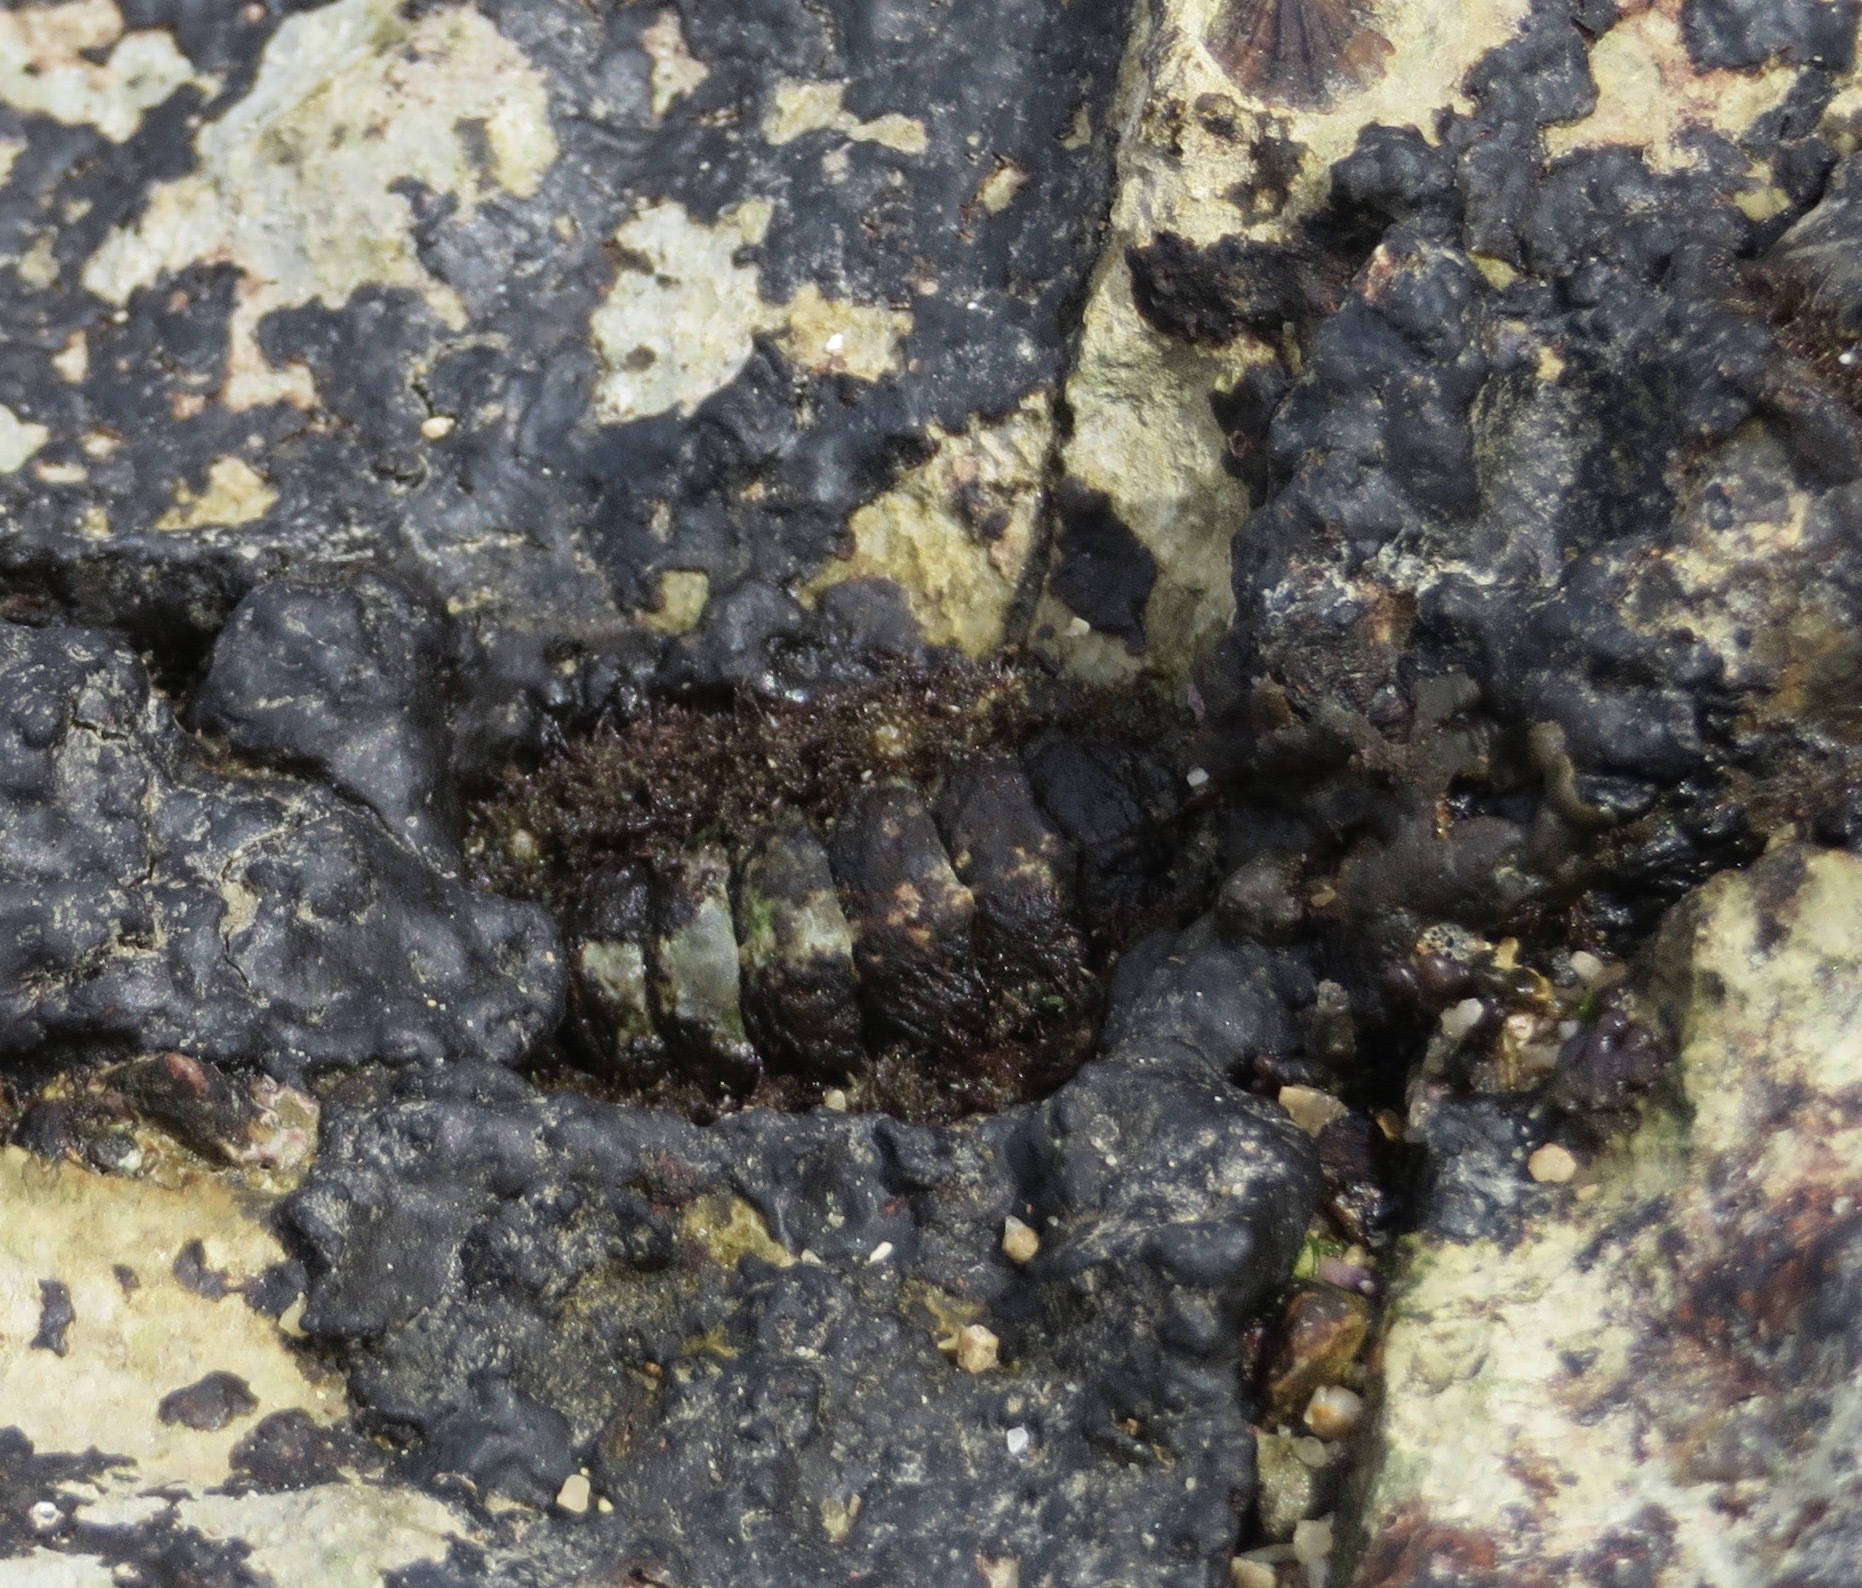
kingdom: Animalia
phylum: Mollusca
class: Polyplacophora
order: Chitonida
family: Mopaliidae
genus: Mopalia
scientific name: Mopalia muscosa
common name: Mossy chiton
